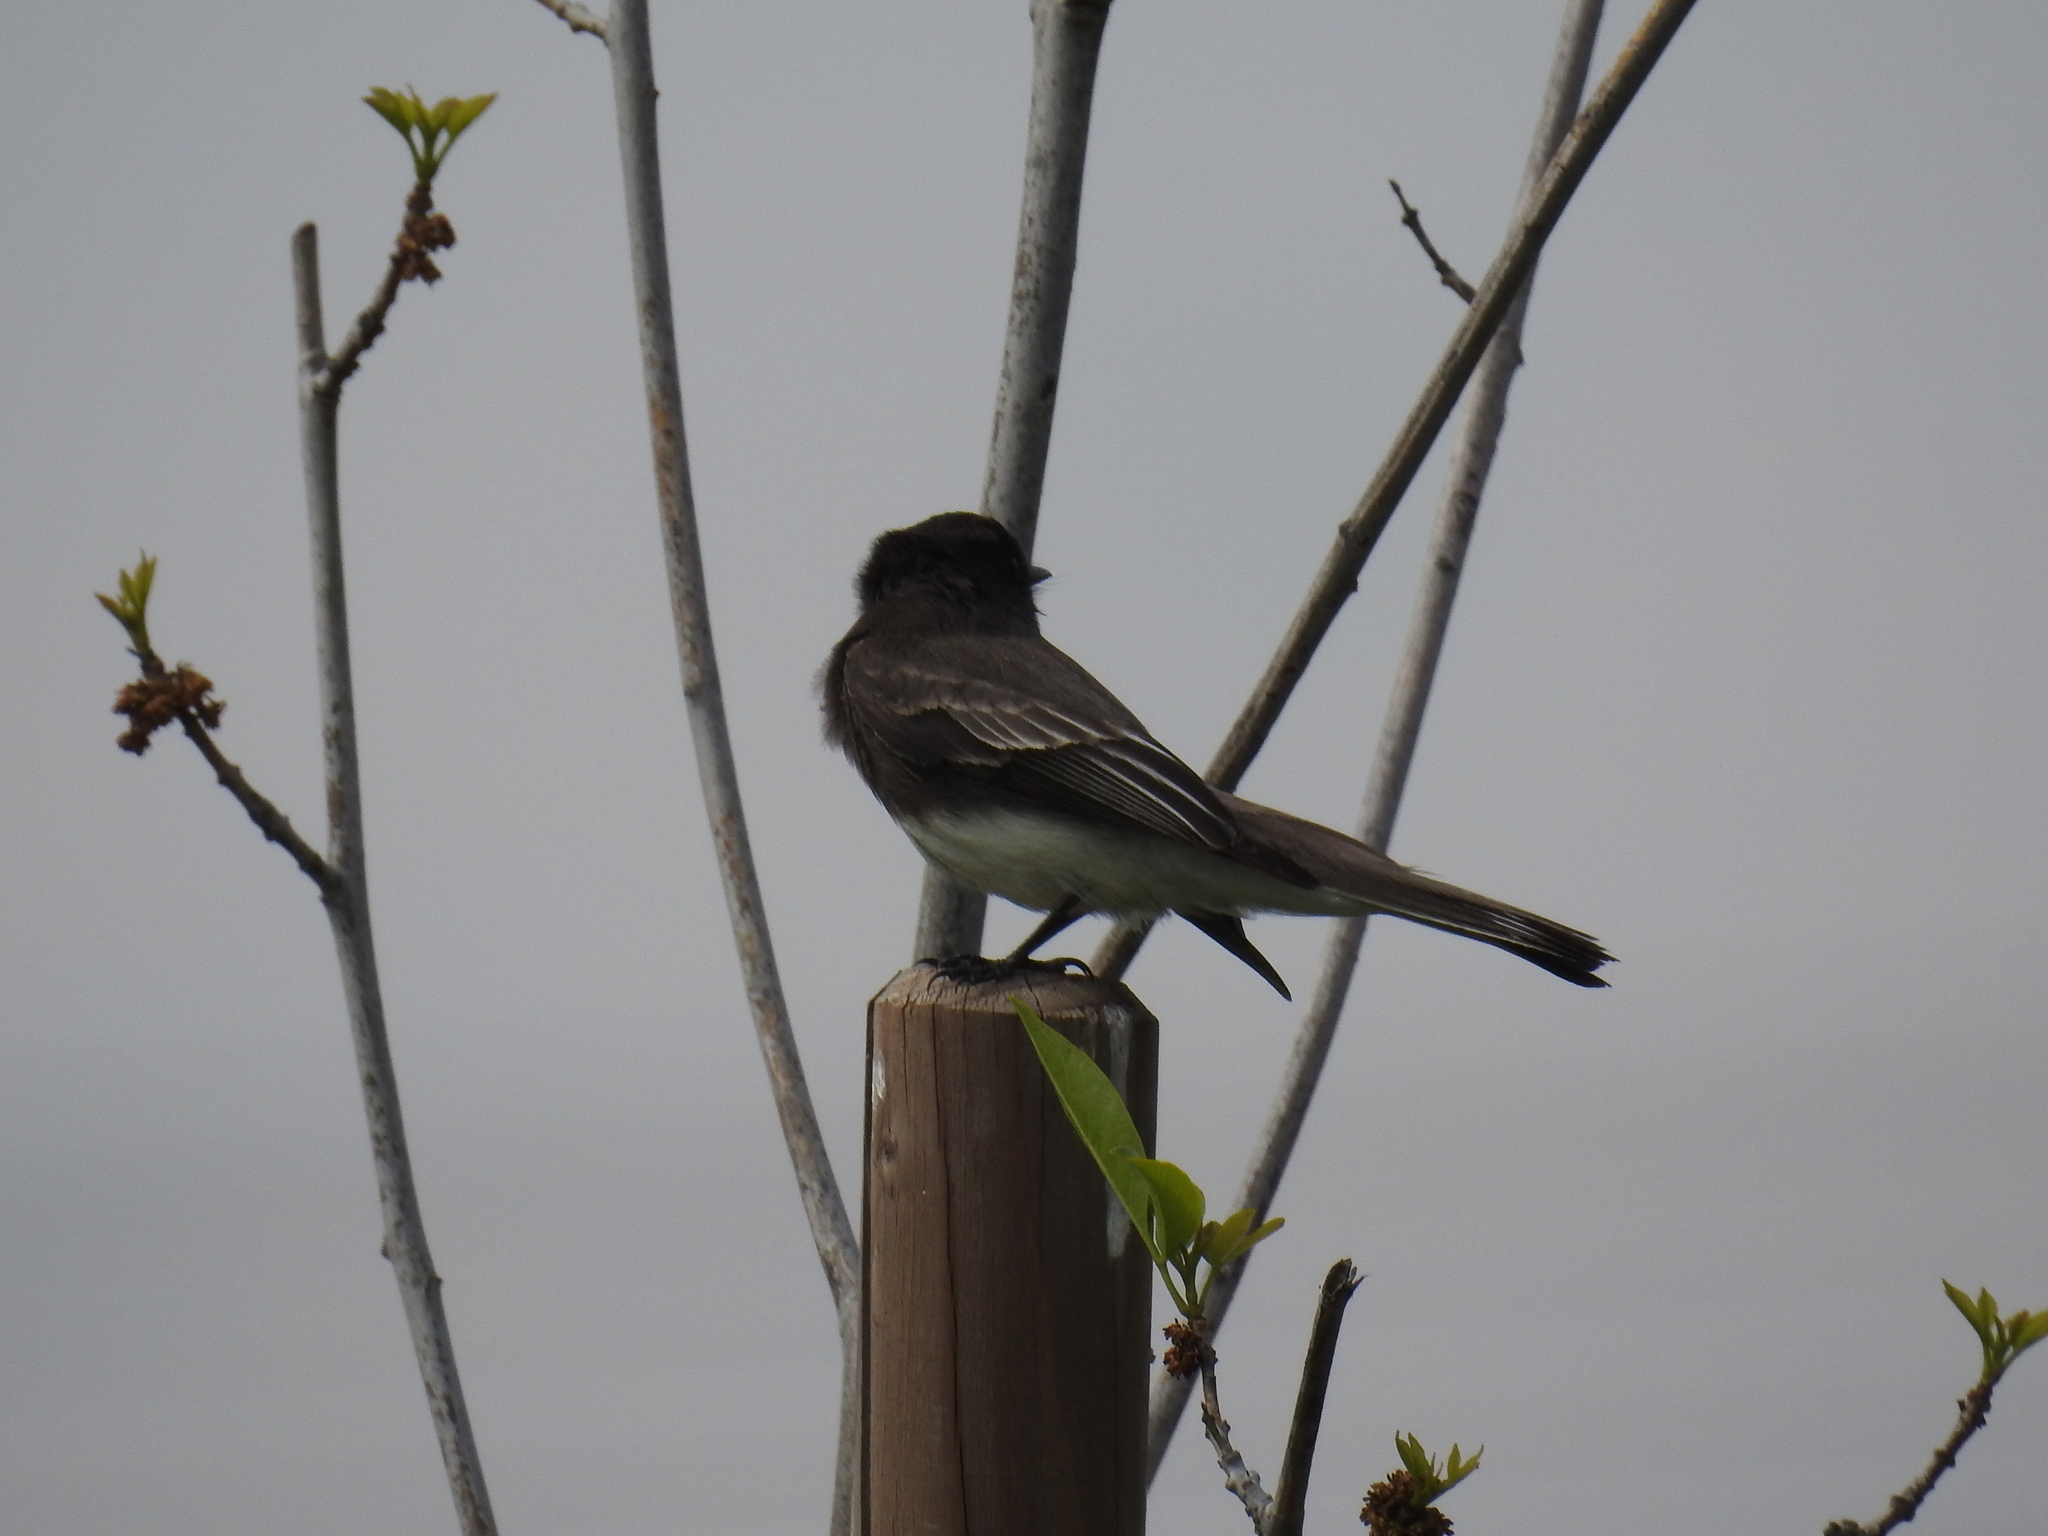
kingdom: Animalia
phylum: Chordata
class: Aves
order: Passeriformes
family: Tyrannidae
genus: Sayornis
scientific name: Sayornis nigricans
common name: Black phoebe
